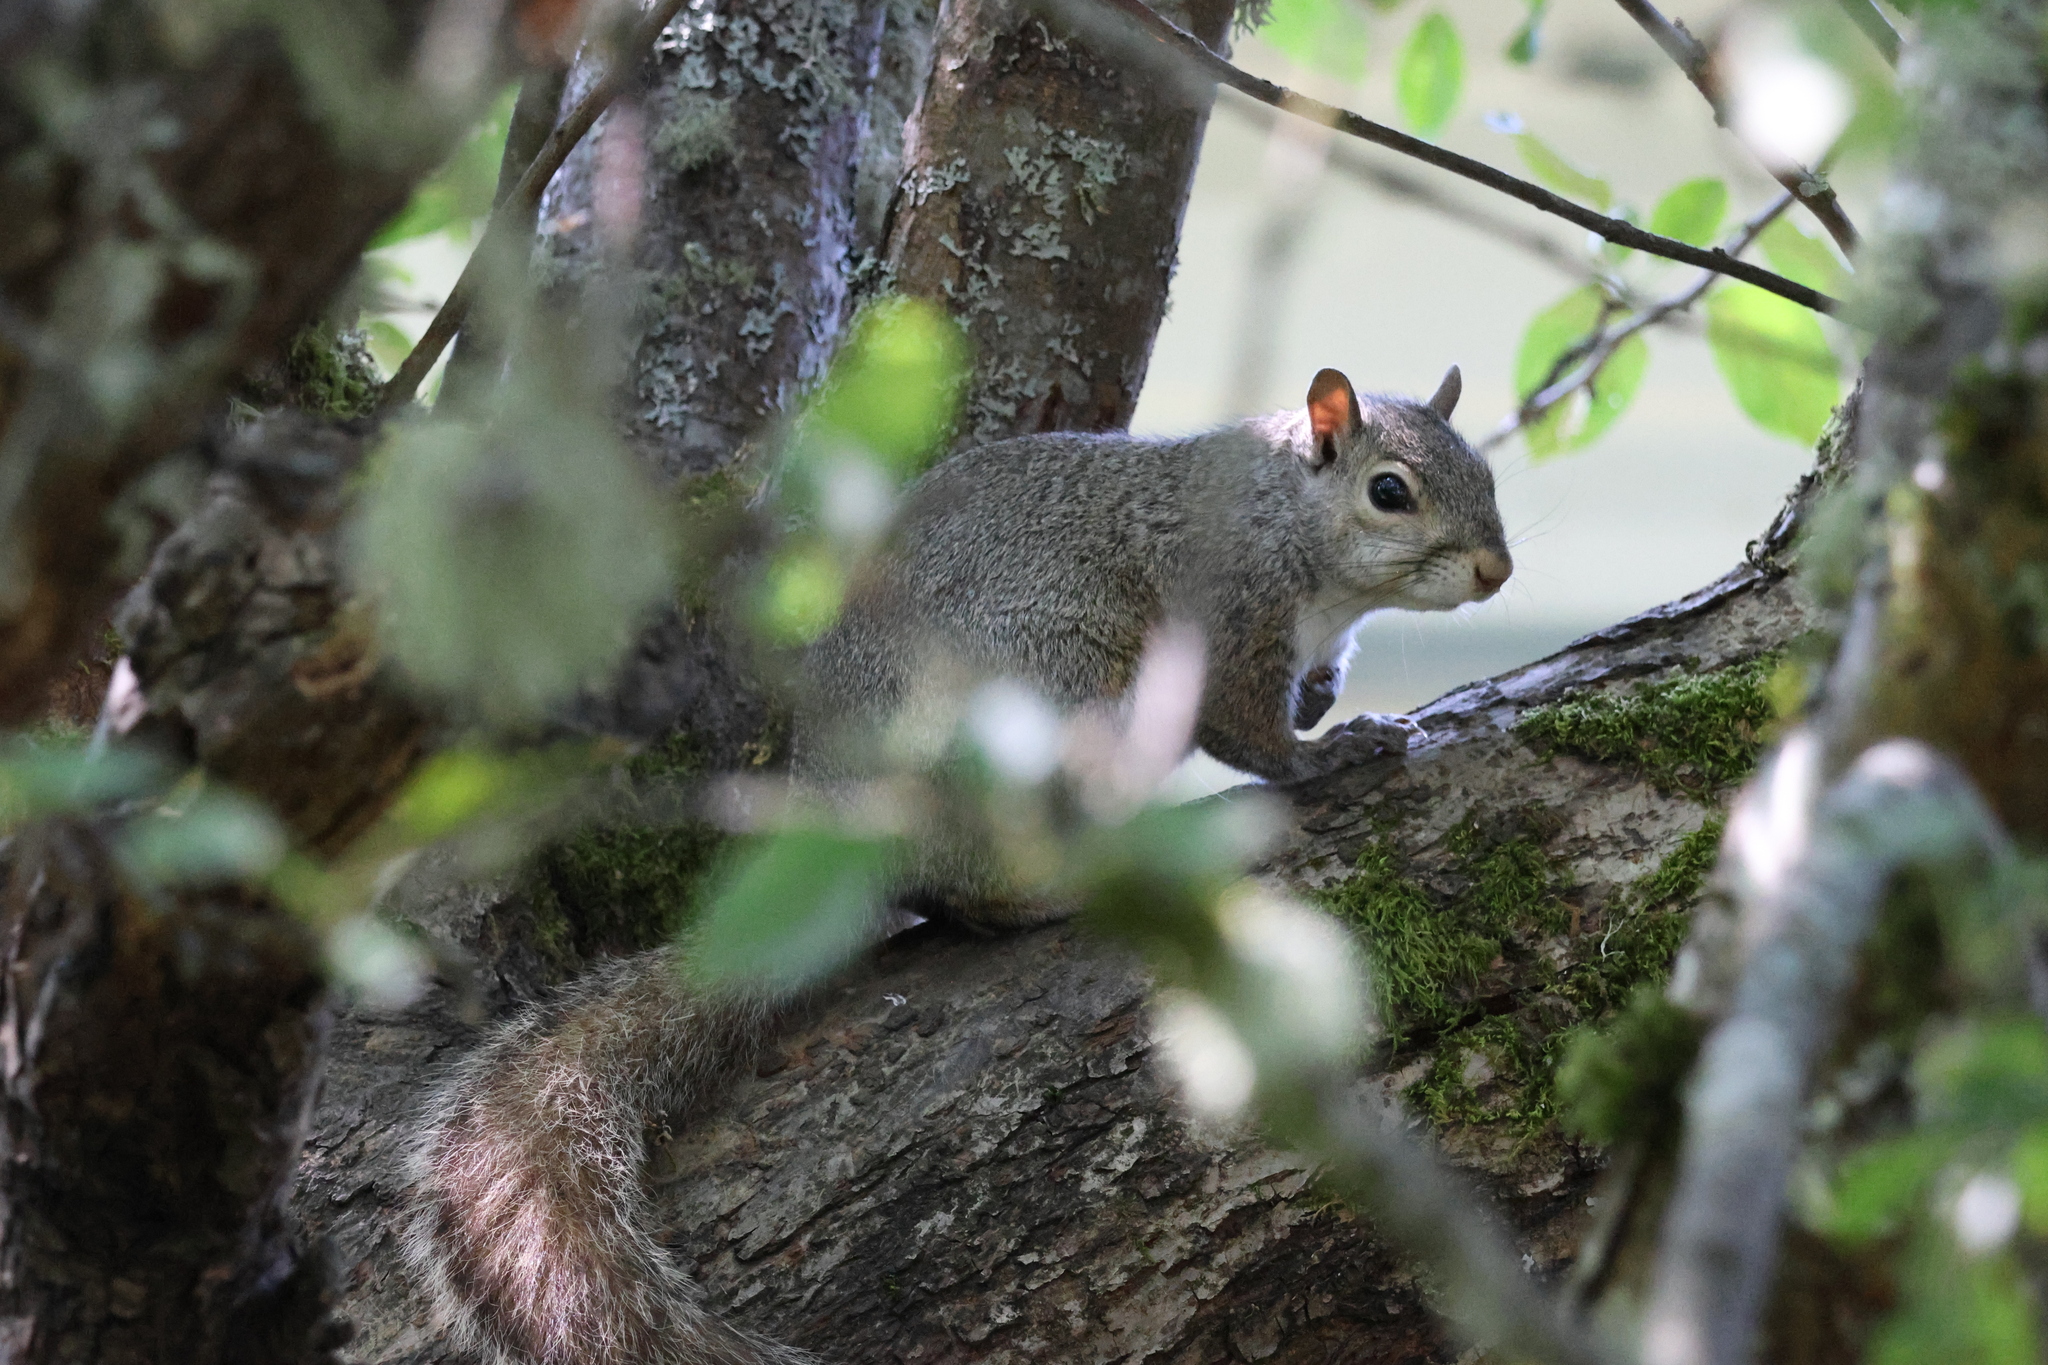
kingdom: Animalia
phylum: Chordata
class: Mammalia
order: Rodentia
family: Sciuridae
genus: Sciurus
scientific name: Sciurus carolinensis
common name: Eastern gray squirrel
